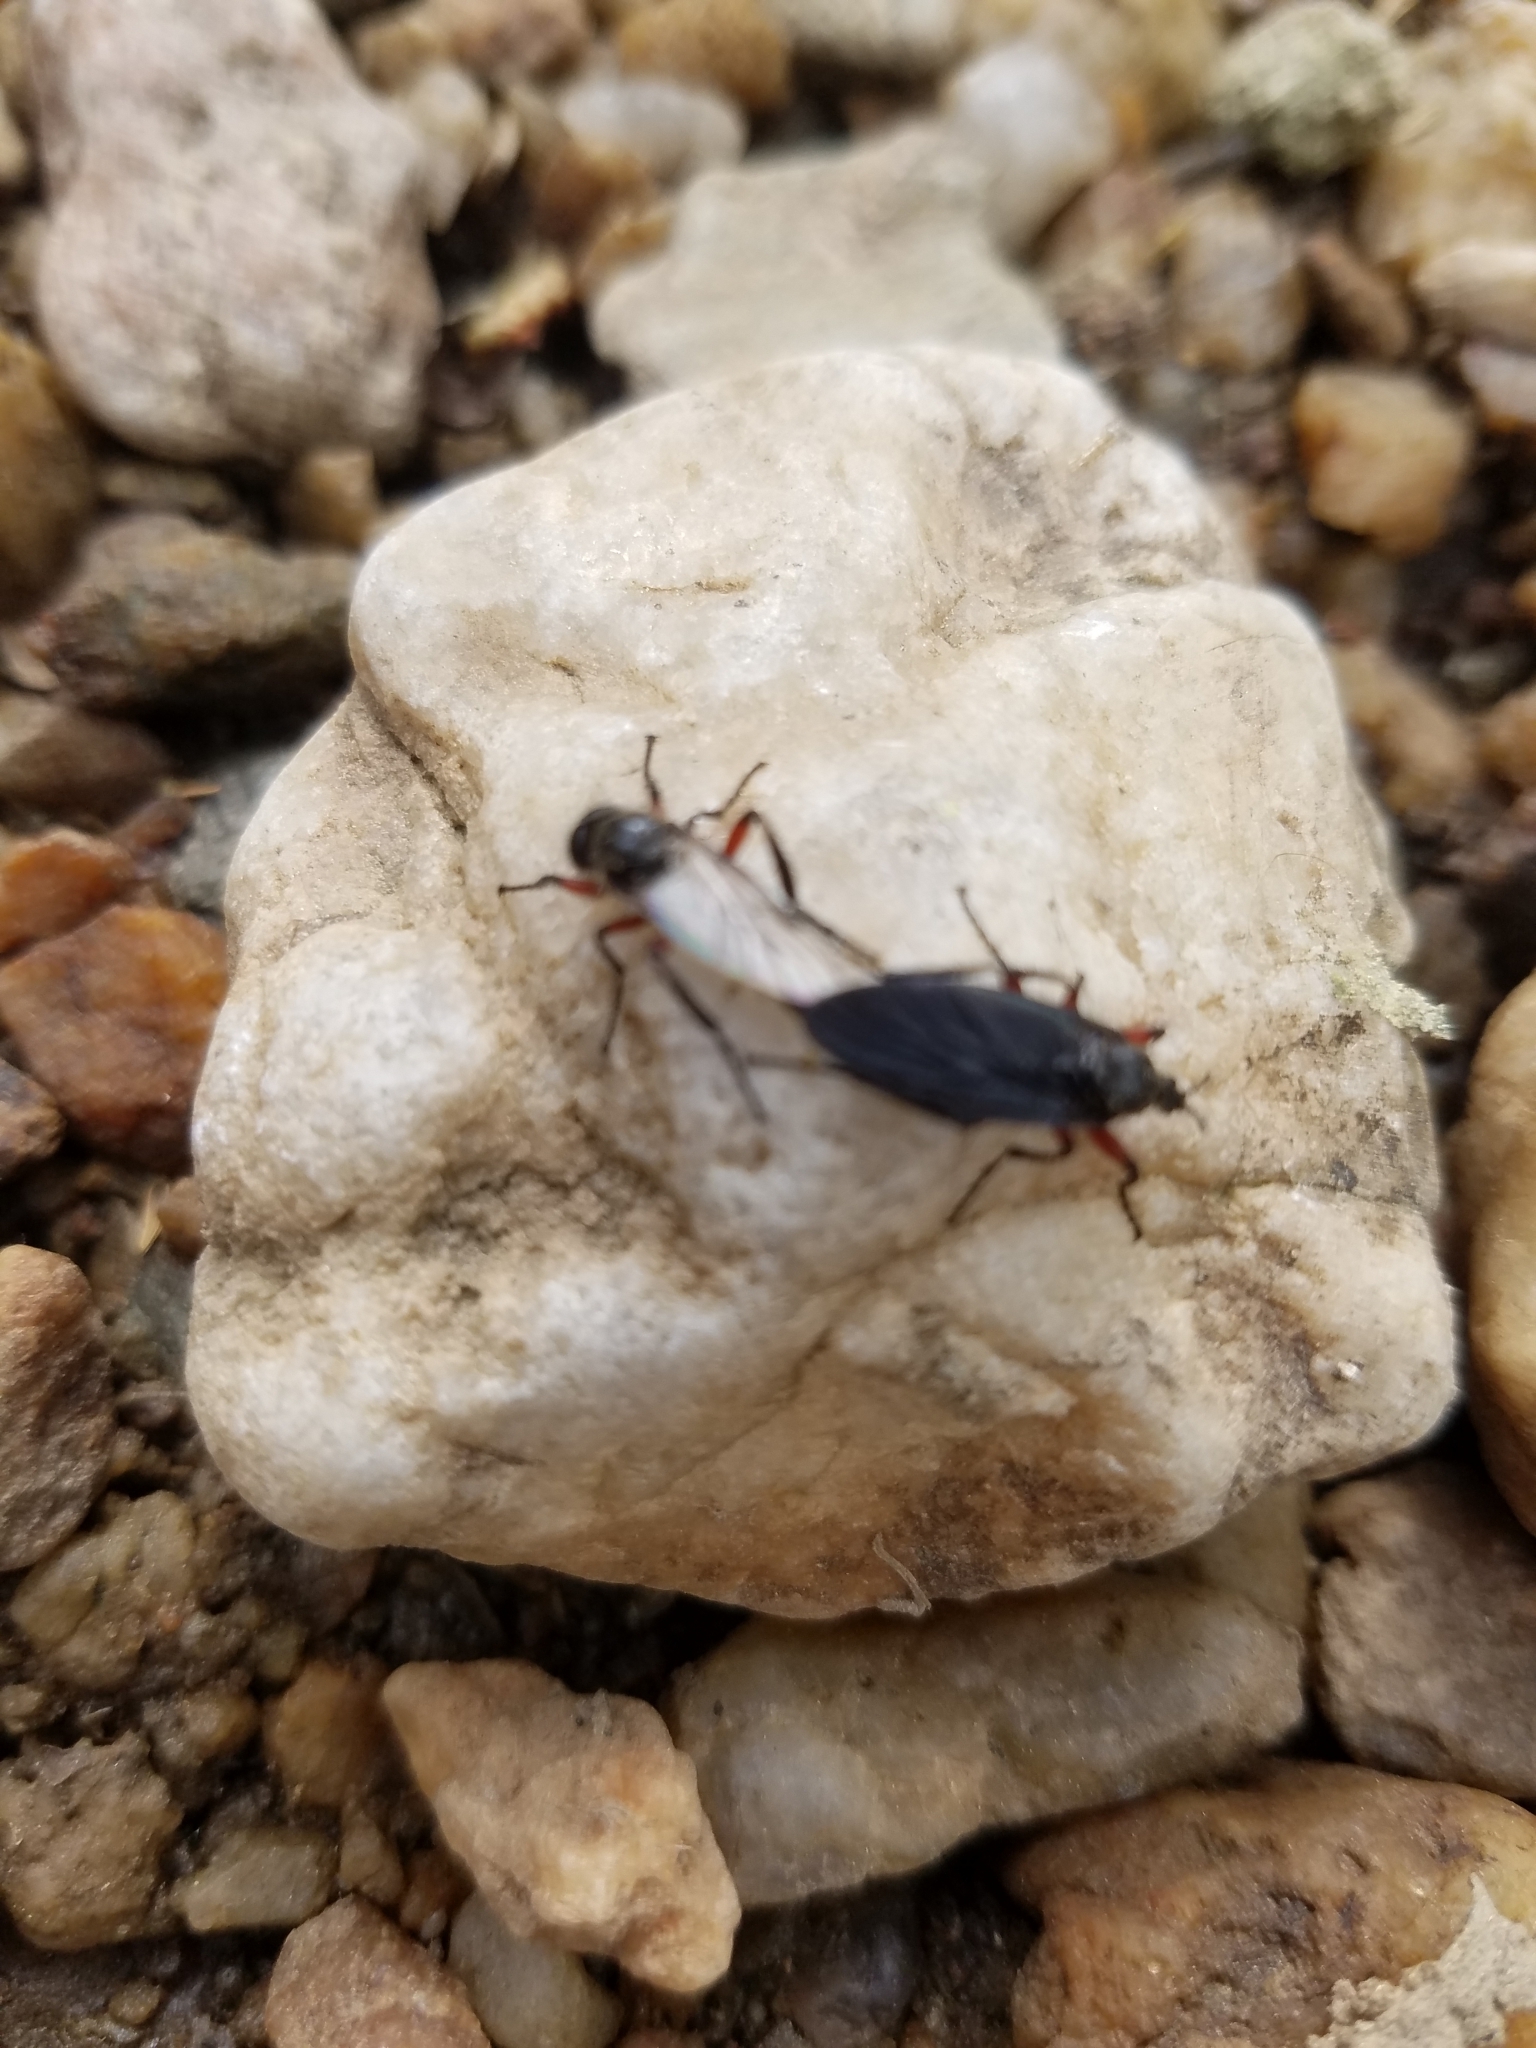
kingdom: Animalia
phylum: Arthropoda
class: Insecta
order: Diptera
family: Bibionidae
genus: Bibio
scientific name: Bibio femoratus
